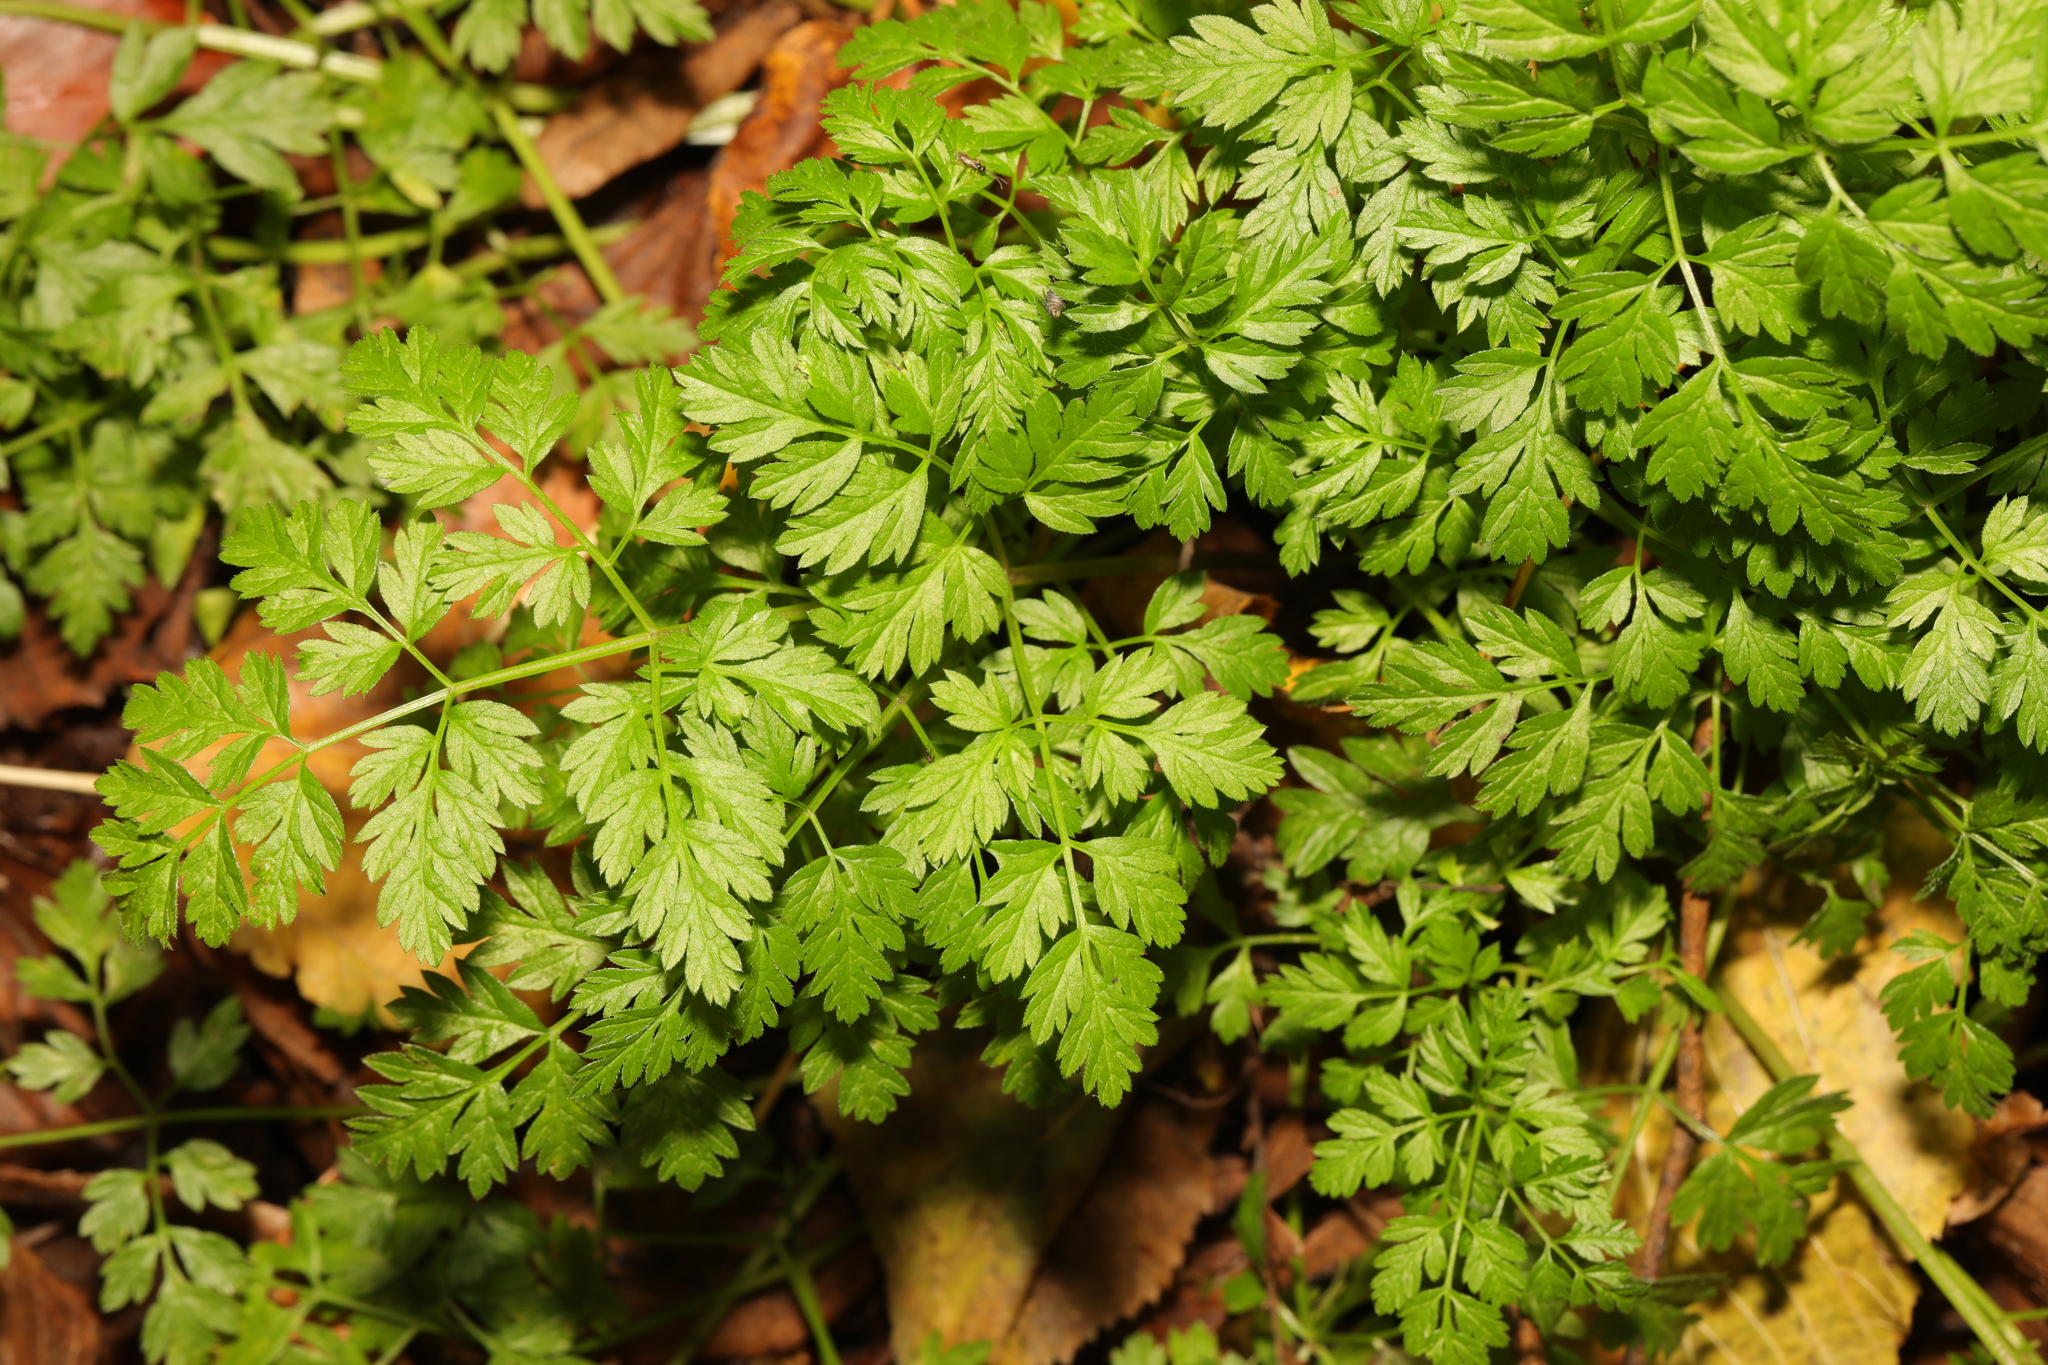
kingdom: Plantae
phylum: Tracheophyta
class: Magnoliopsida
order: Apiales
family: Apiaceae
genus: Anthriscus
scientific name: Anthriscus sylvestris
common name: Cow parsley
